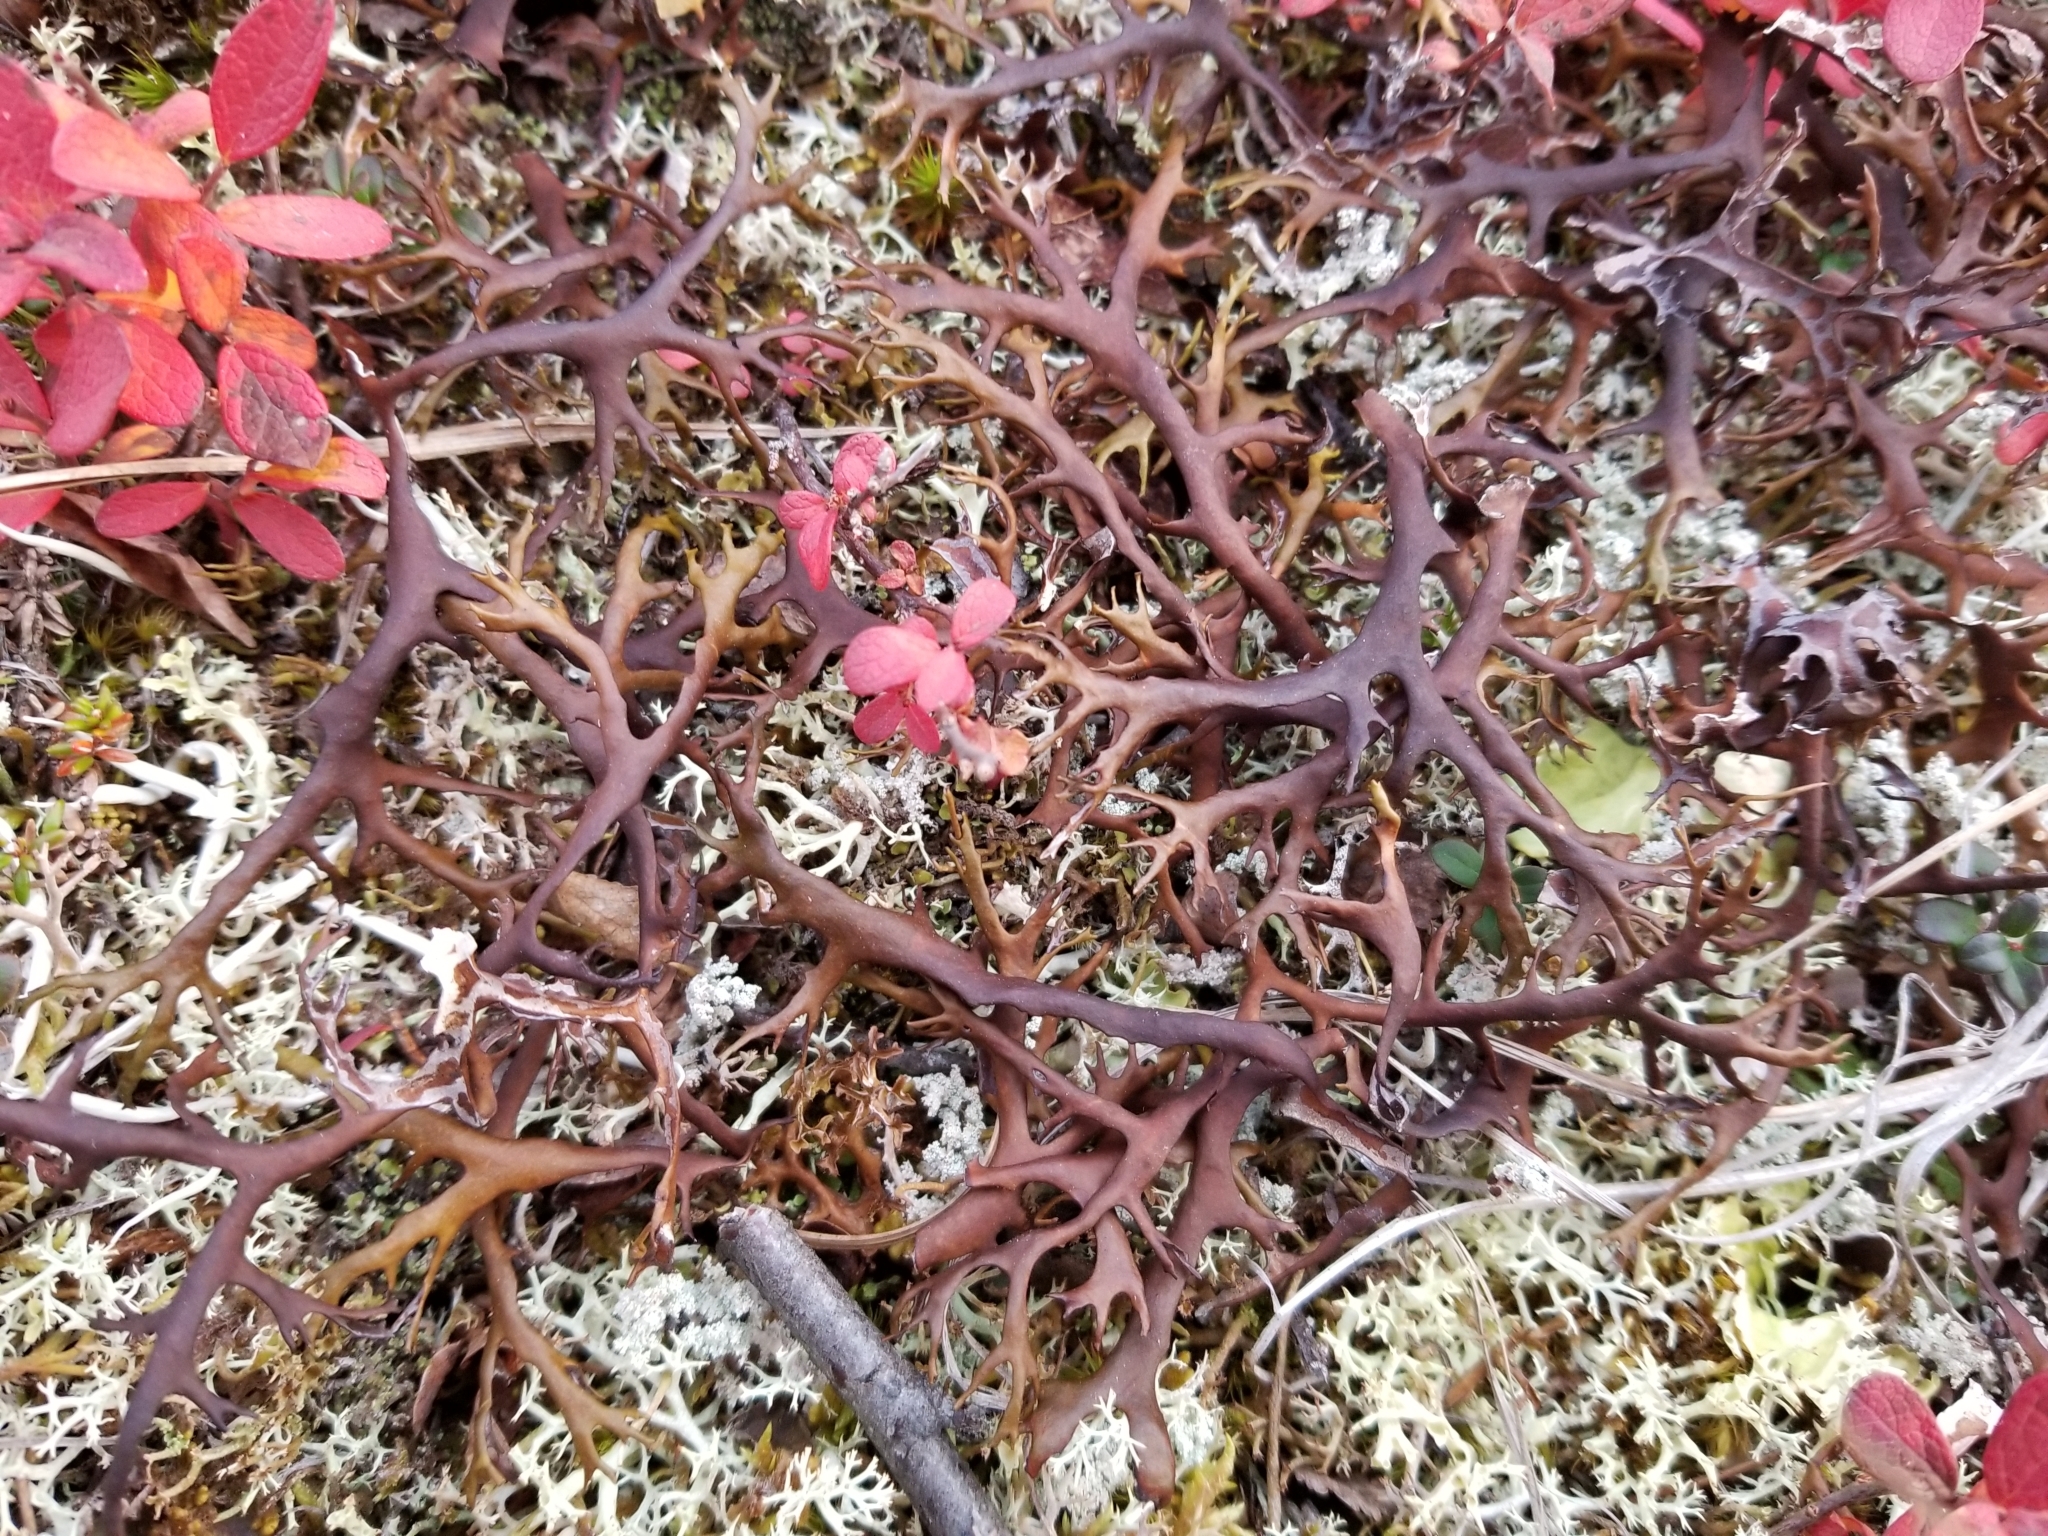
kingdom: Fungi
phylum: Ascomycota
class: Lecanoromycetes
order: Lecanorales
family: Parmeliaceae
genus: Nephromopsis
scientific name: Nephromopsis richardsonii
